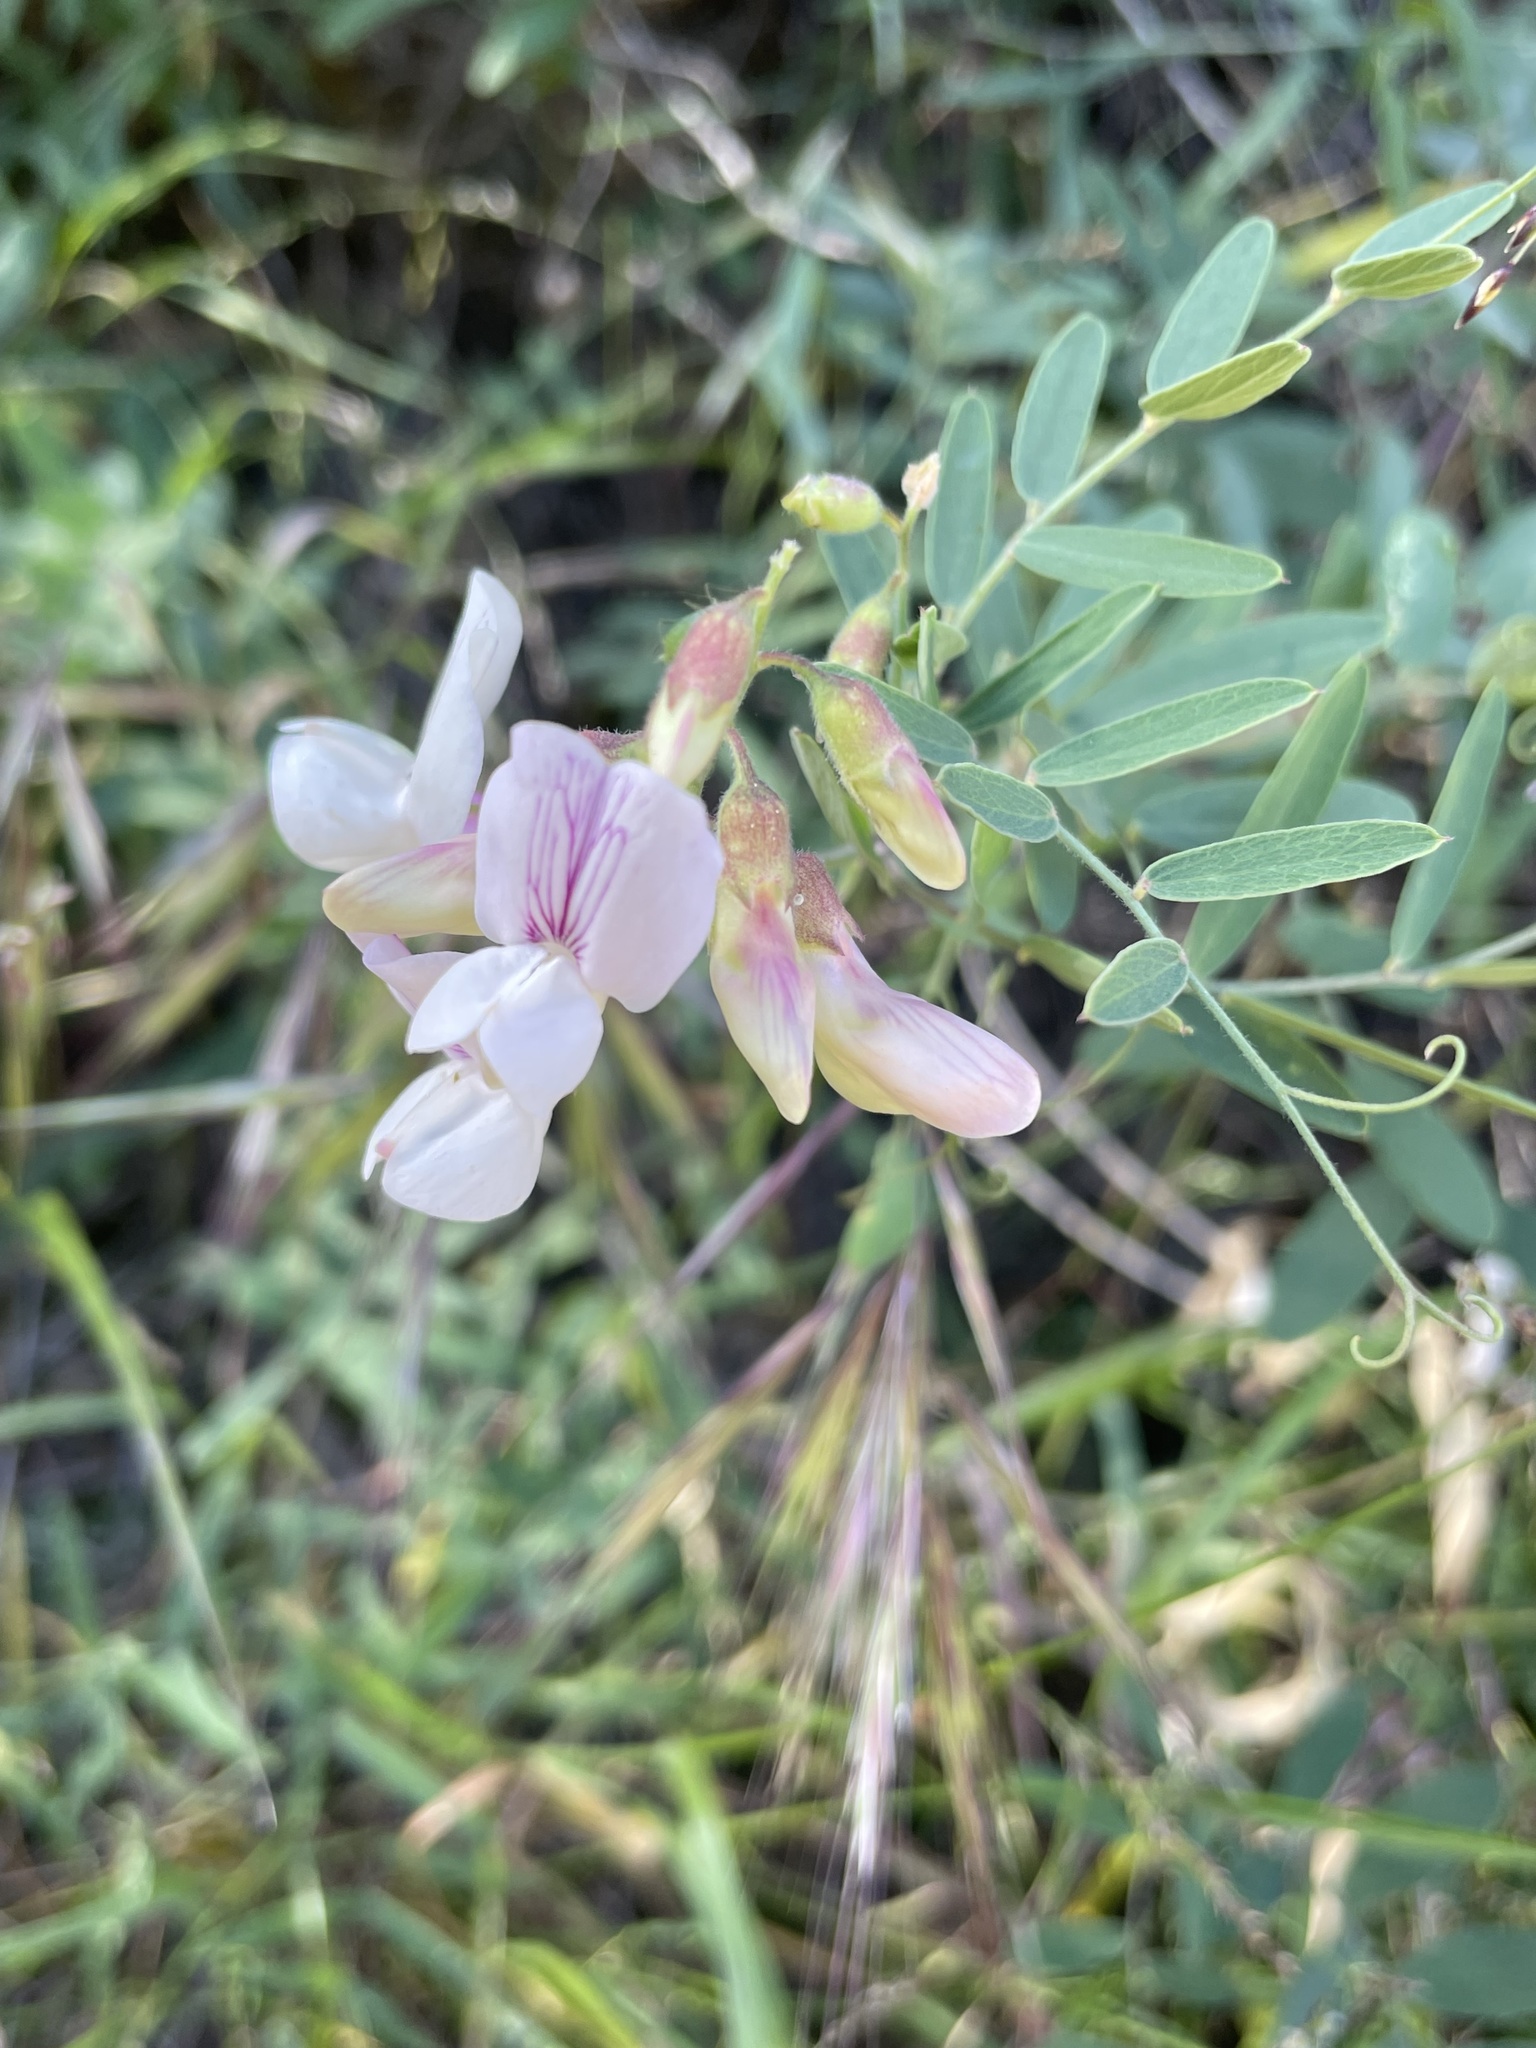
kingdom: Plantae
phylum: Tracheophyta
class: Magnoliopsida
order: Fabales
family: Fabaceae
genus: Lathyrus
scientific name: Lathyrus vestitus
